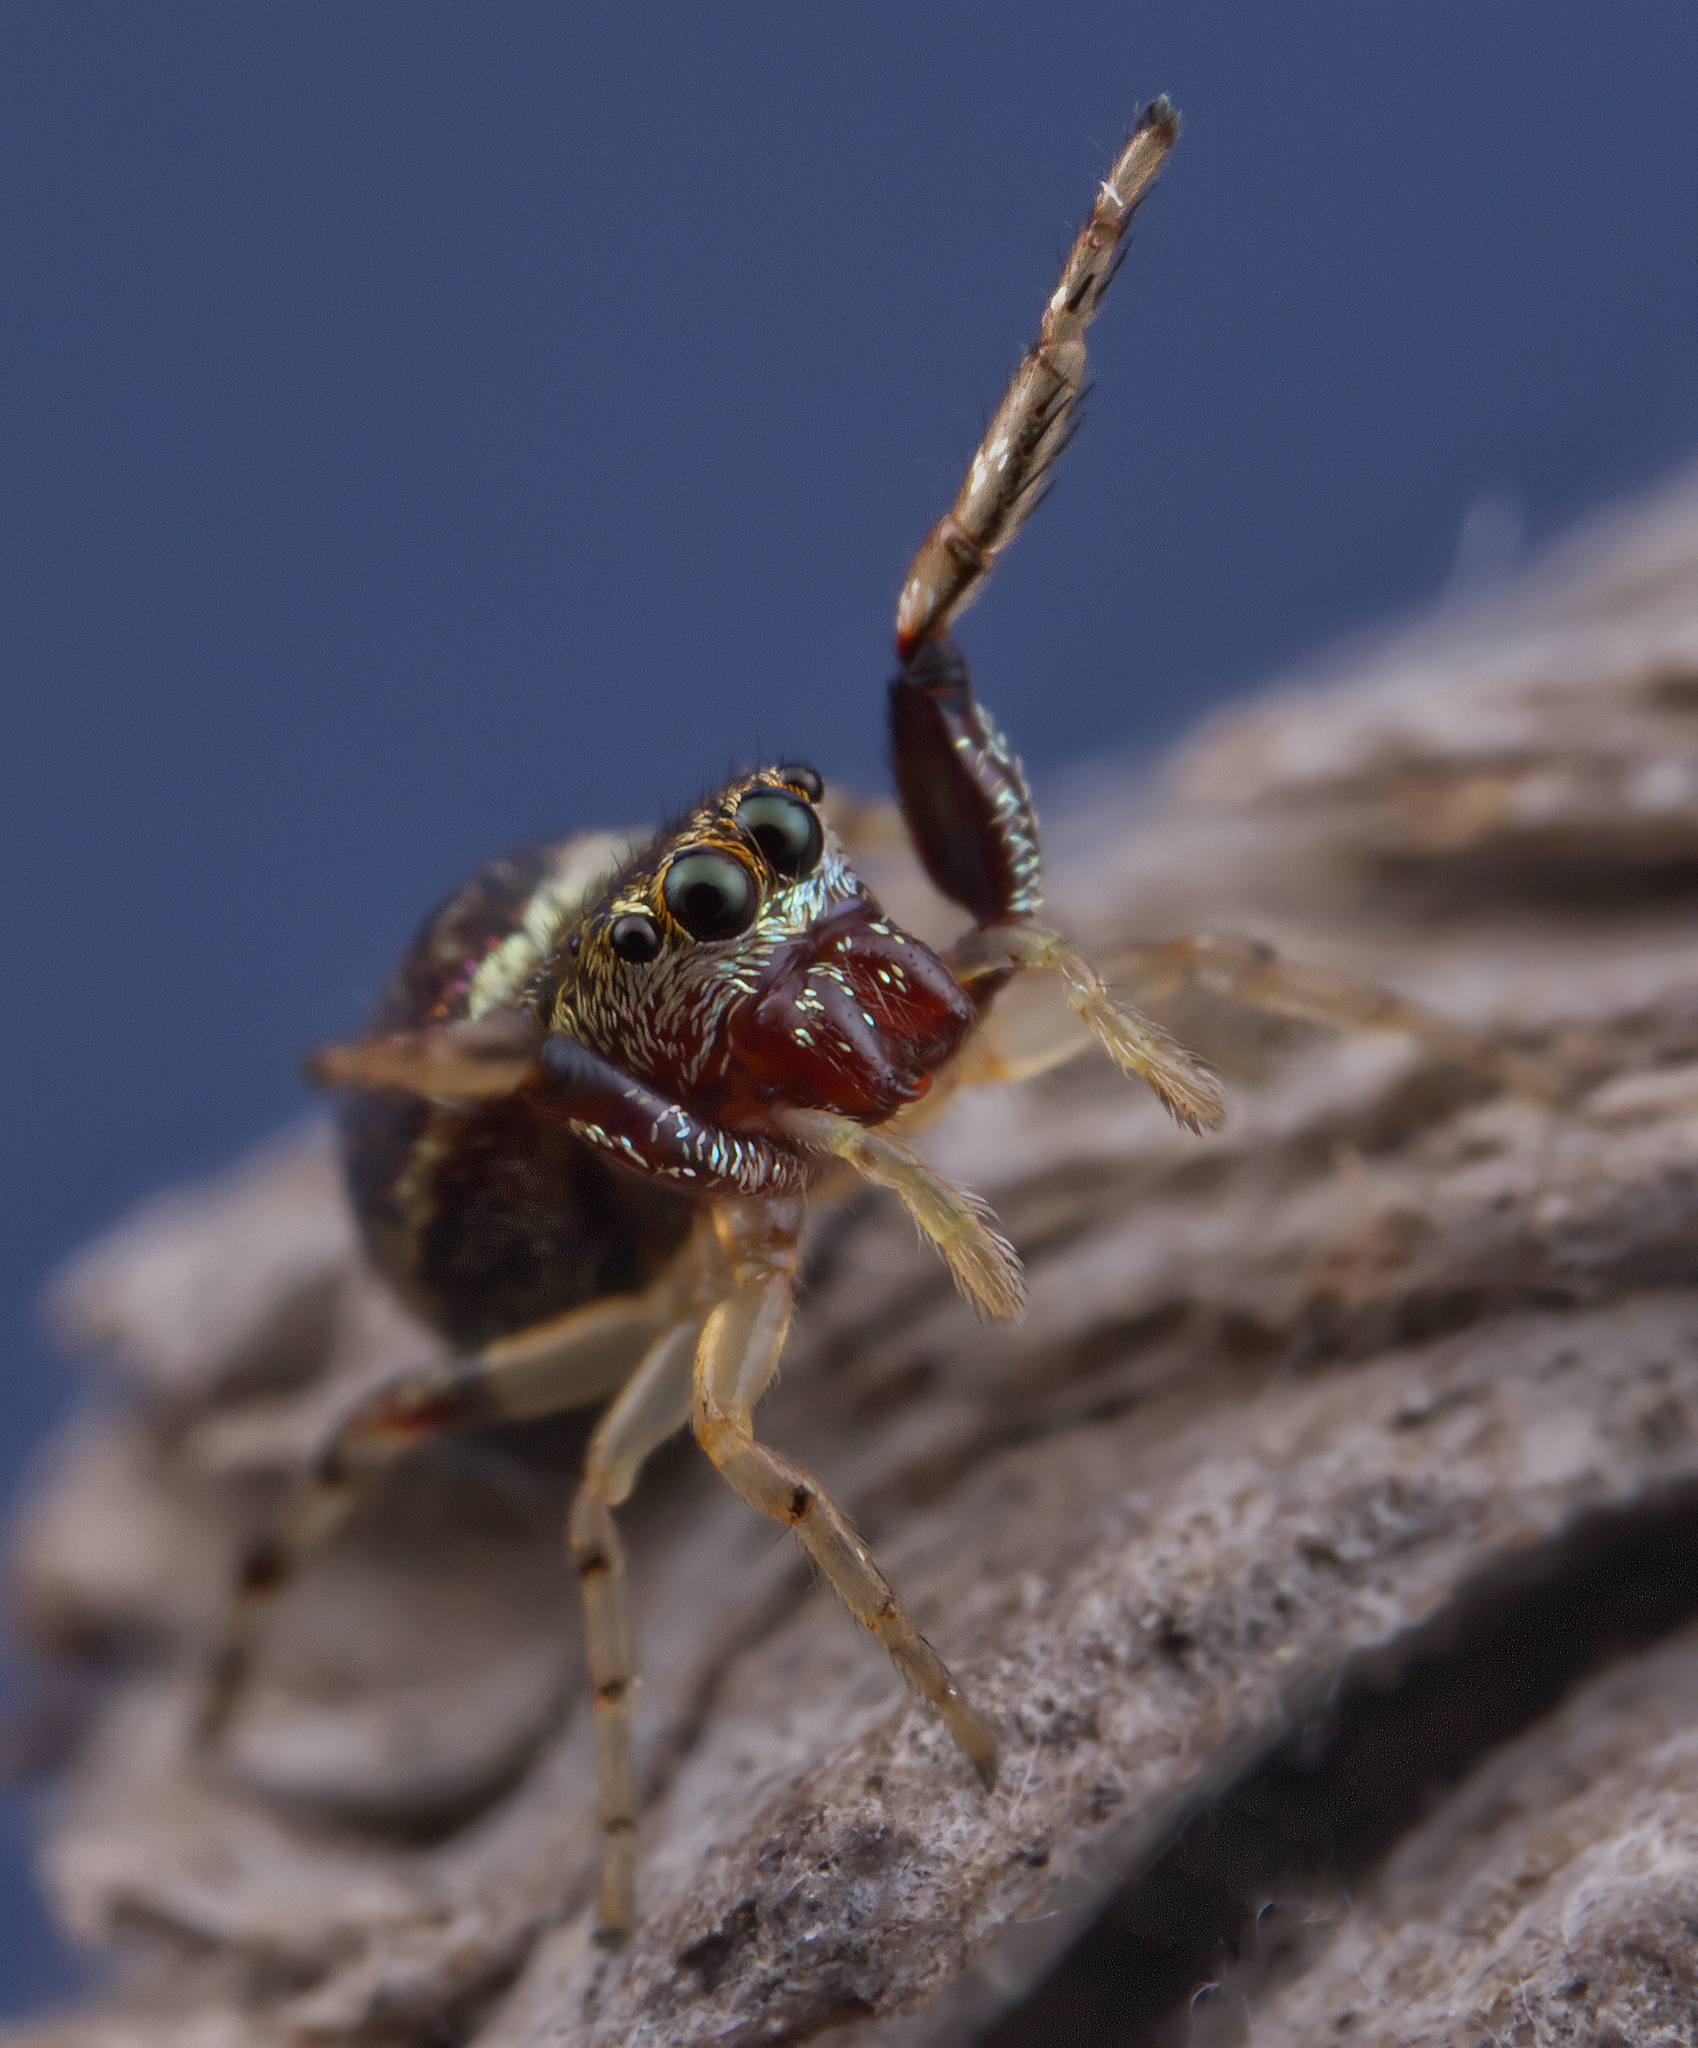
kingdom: Animalia
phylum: Arthropoda
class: Arachnida
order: Araneae
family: Salticidae
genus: Zygoballus
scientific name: Zygoballus rufipes
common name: Jumping spiders
